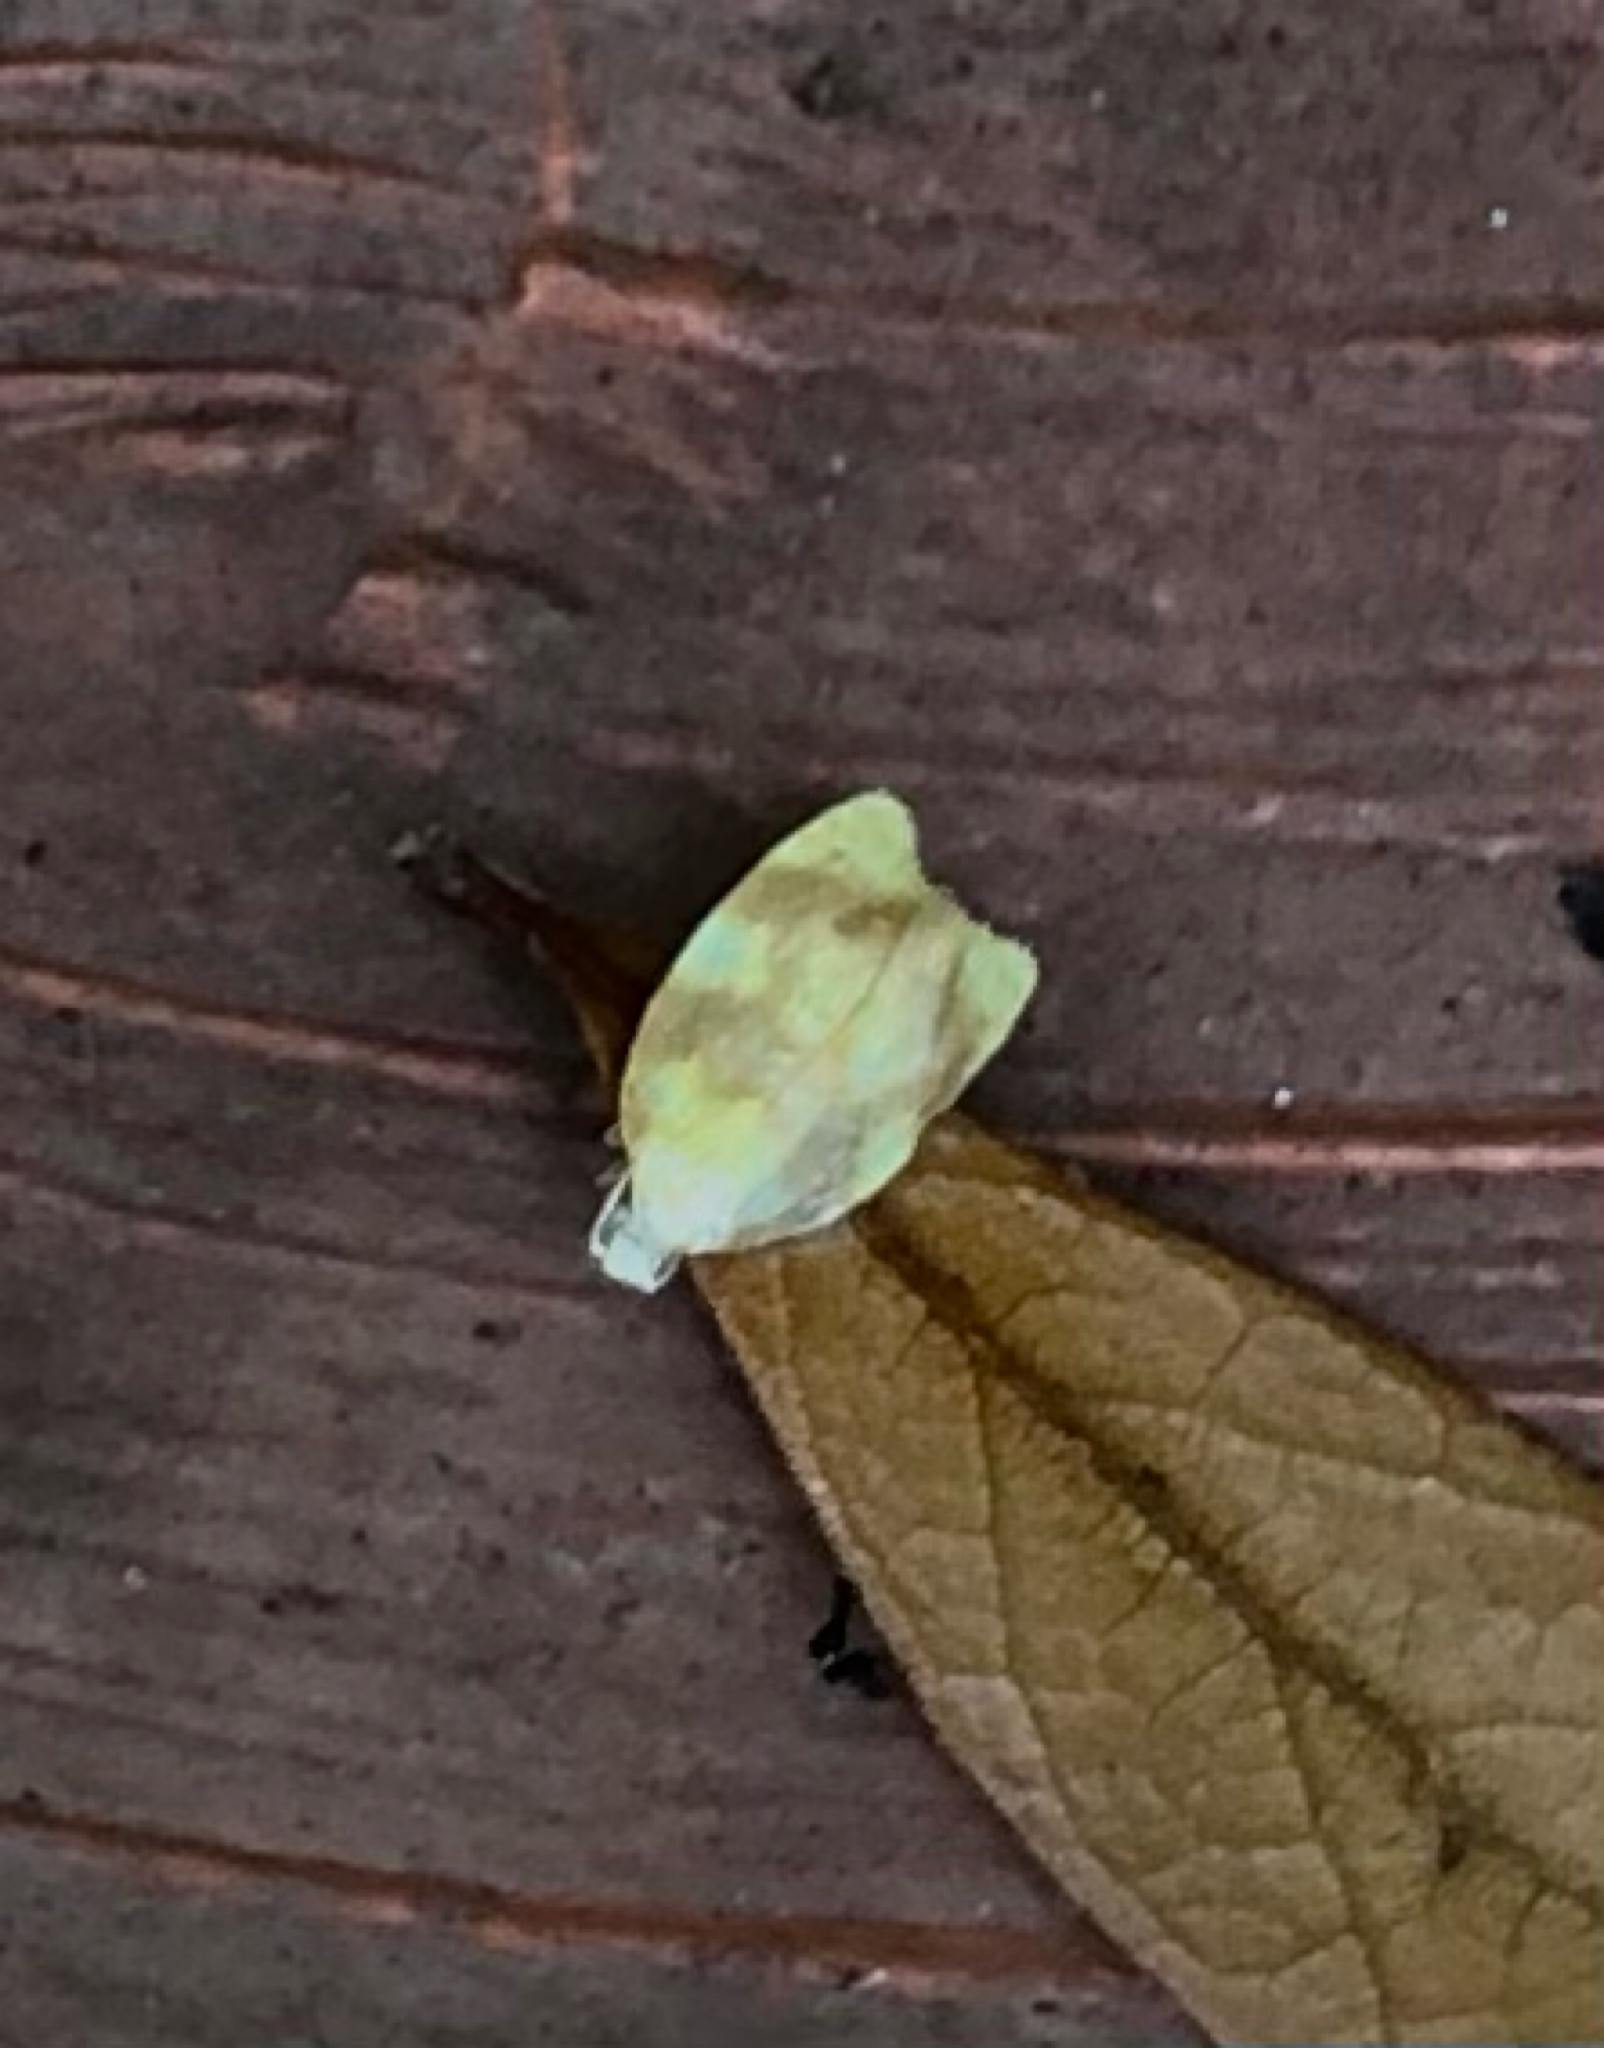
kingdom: Animalia
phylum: Arthropoda
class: Insecta
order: Lepidoptera
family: Tortricidae
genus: Acleris
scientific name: Acleris semipurpurana
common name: Oak leaftier moth
